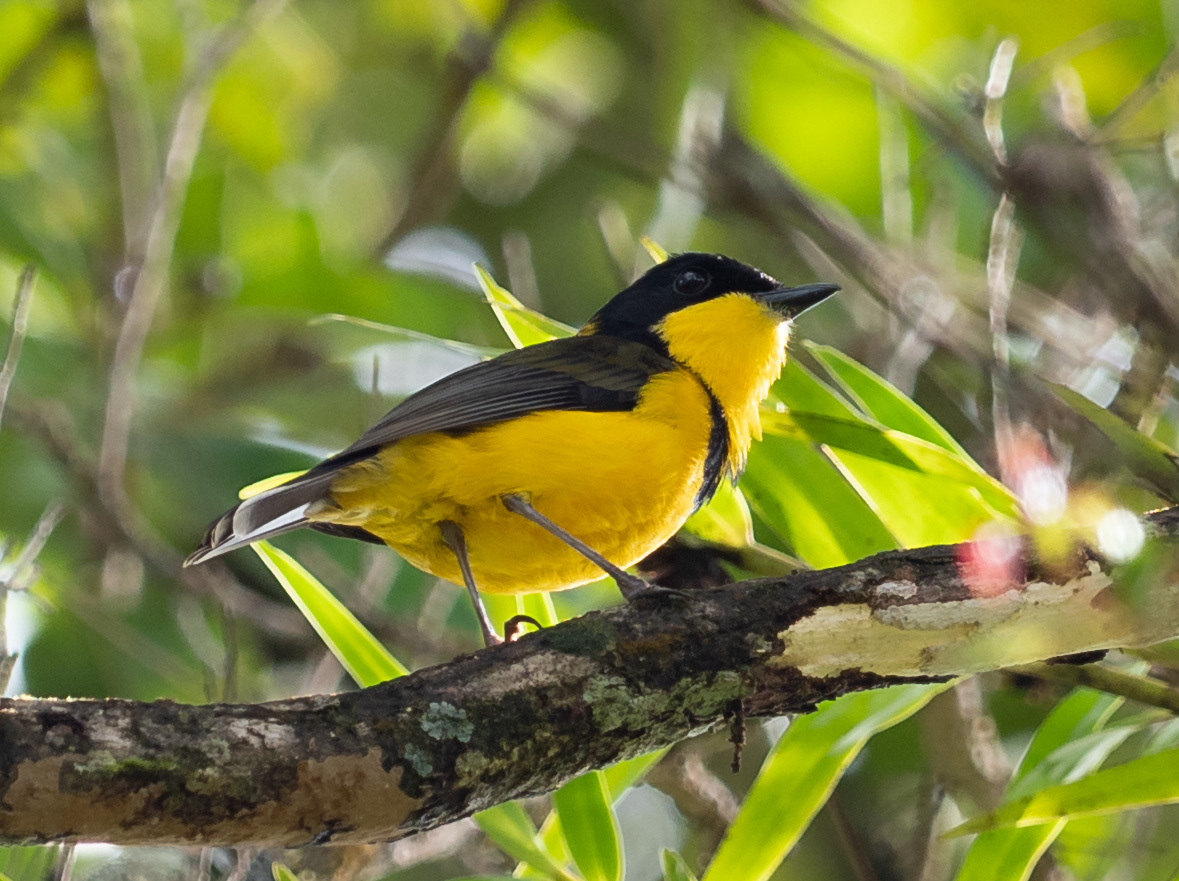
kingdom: Animalia
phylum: Chordata
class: Aves
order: Passeriformes
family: Pachycephalidae
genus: Pachycephala
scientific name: Pachycephala vitiensis
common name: Fiji whistler
